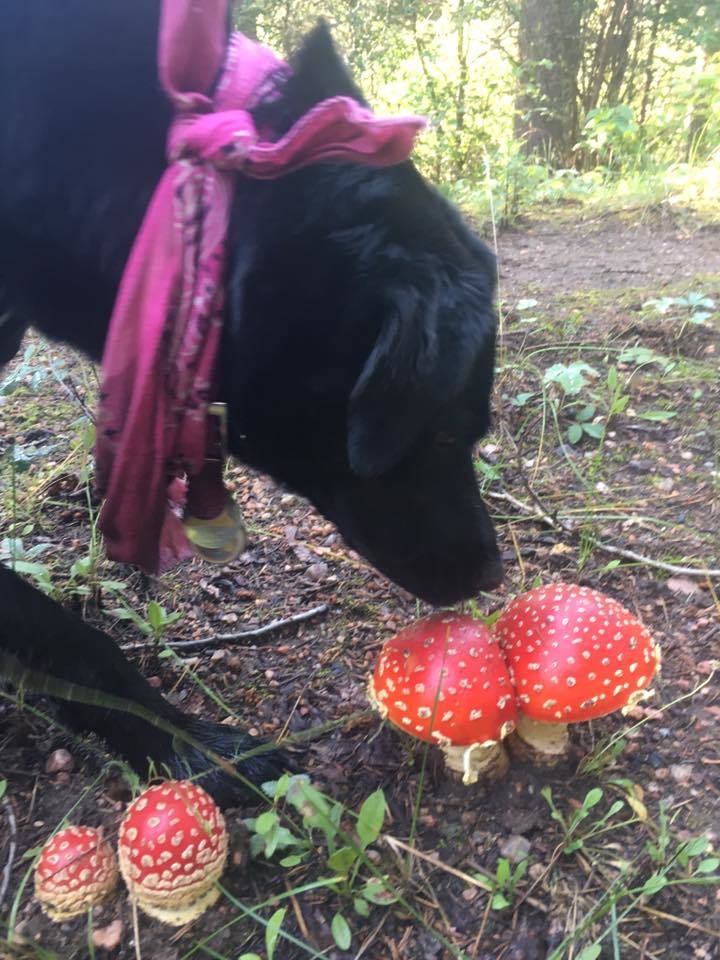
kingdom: Fungi
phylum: Basidiomycota
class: Agaricomycetes
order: Agaricales
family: Amanitaceae
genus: Amanita
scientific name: Amanita muscaria
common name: Fly agaric
